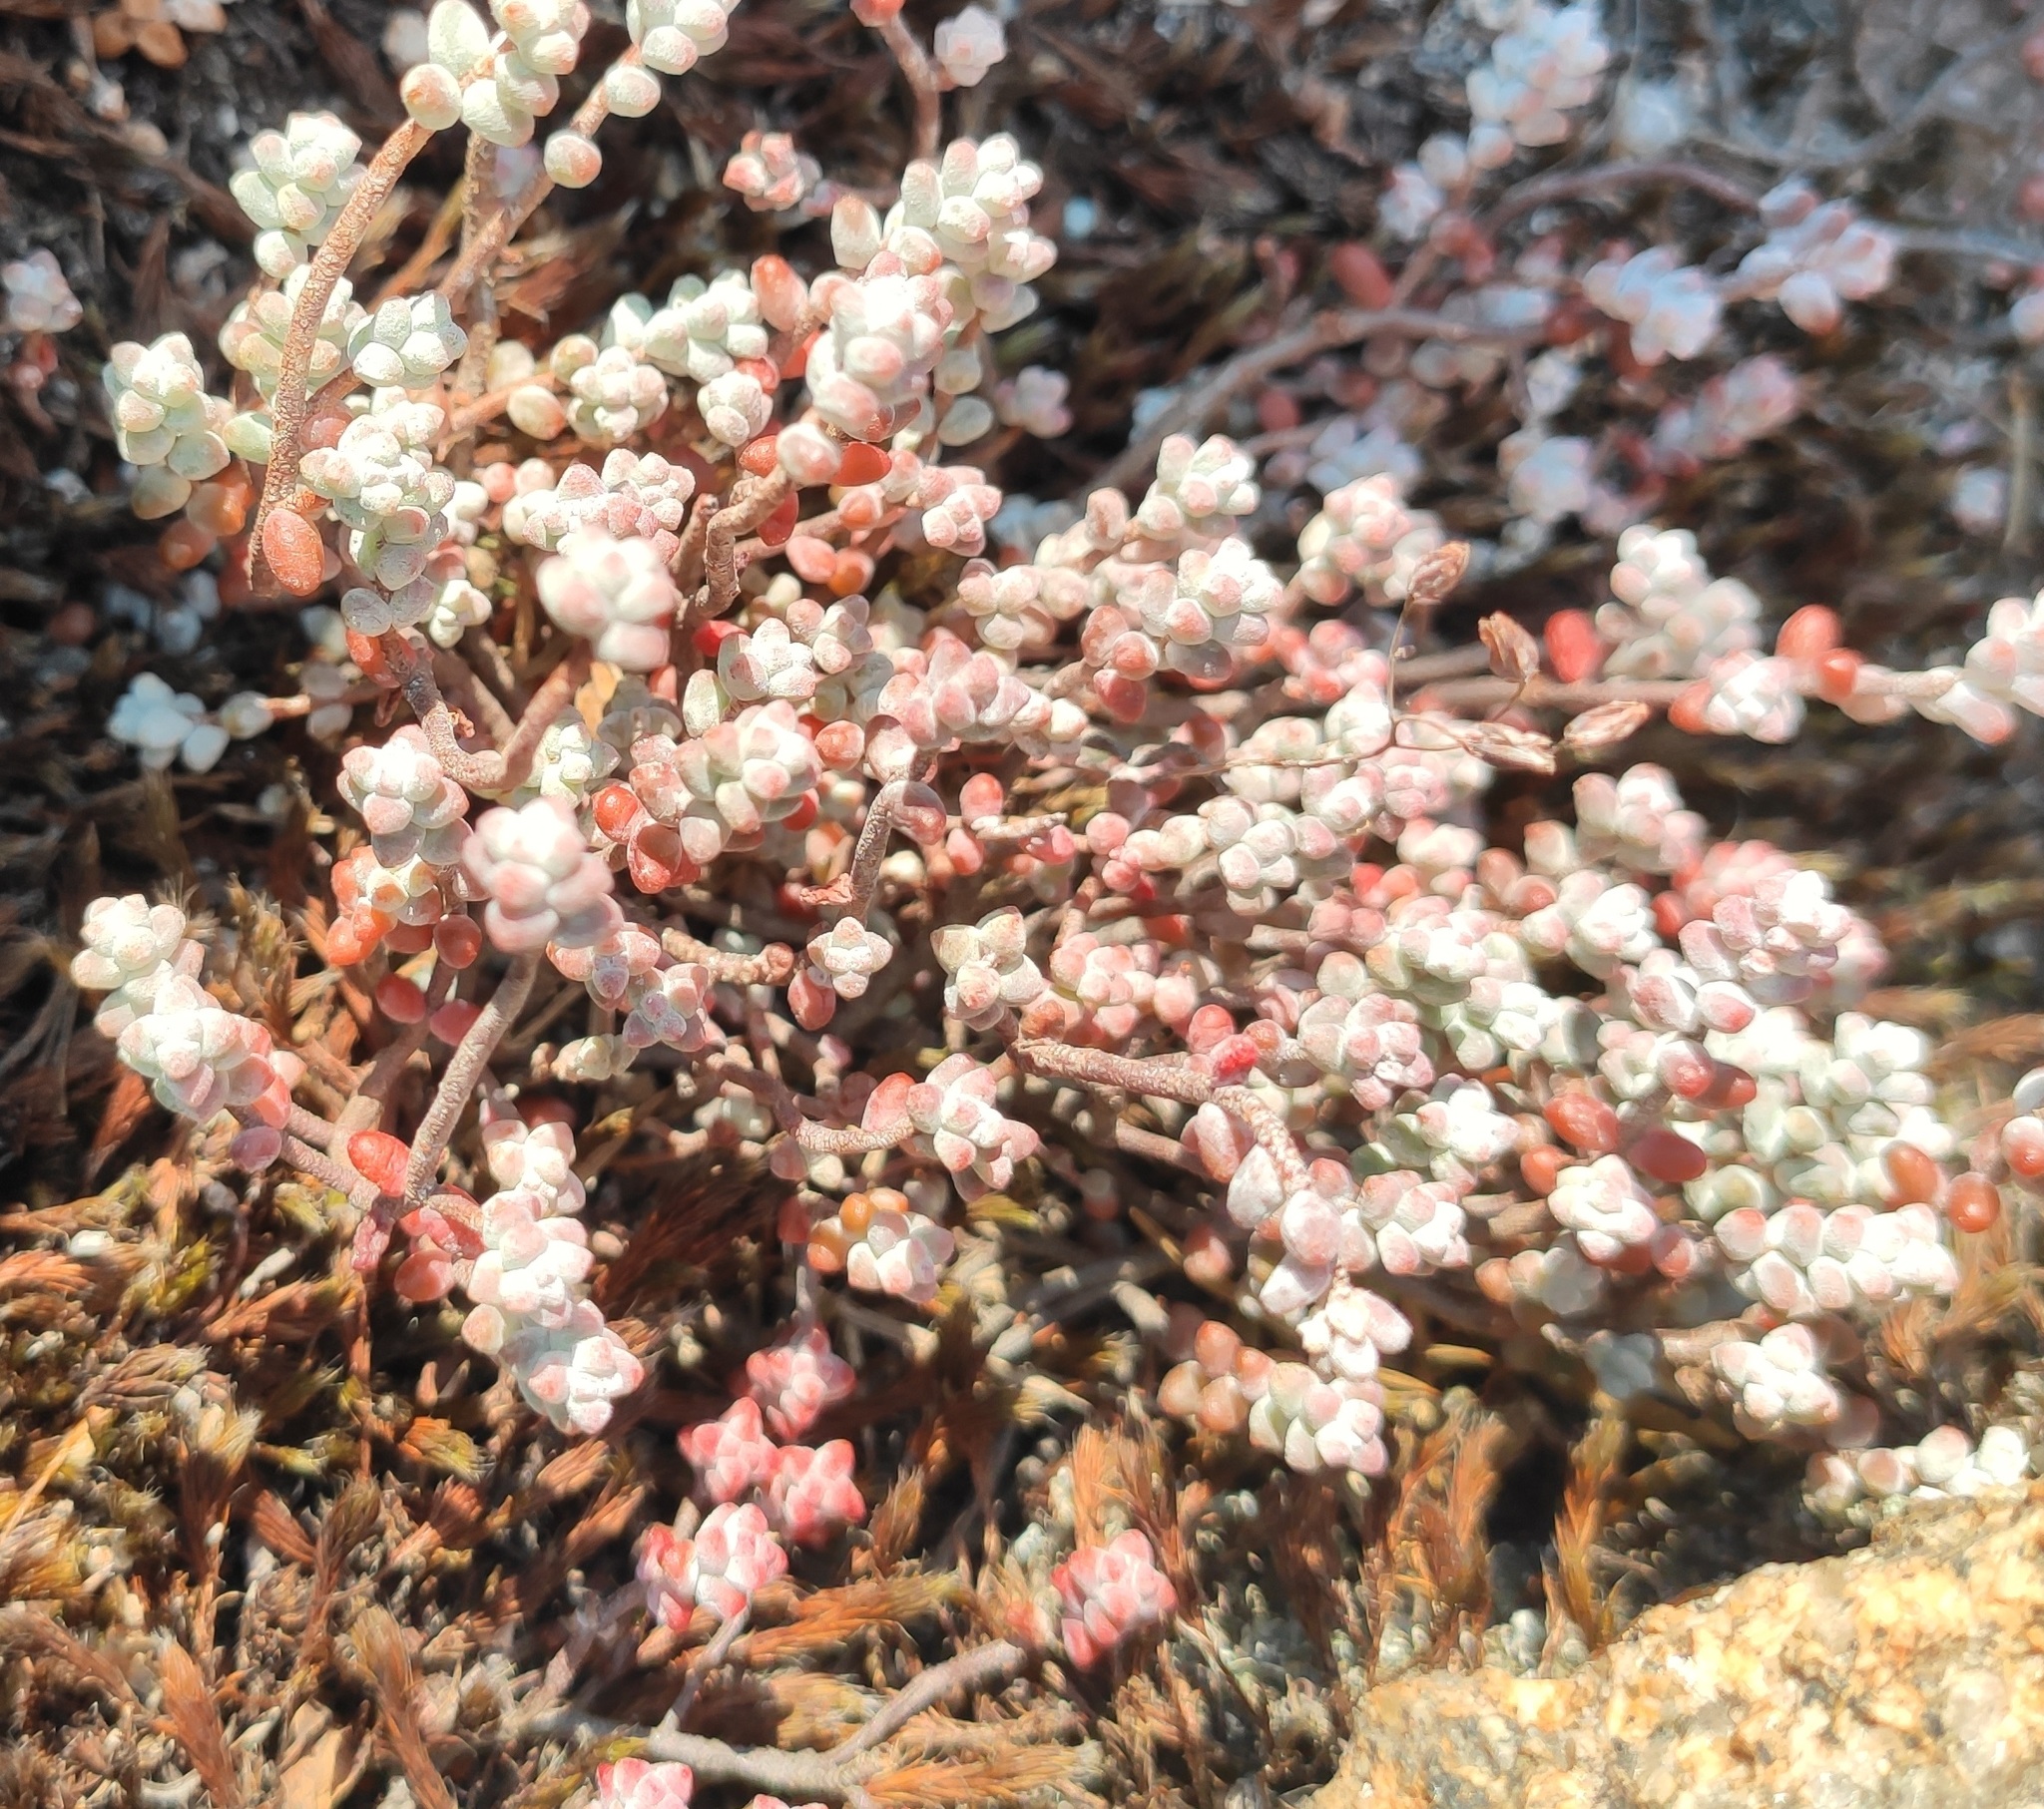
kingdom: Plantae
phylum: Tracheophyta
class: Magnoliopsida
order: Saxifragales
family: Crassulaceae
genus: Sedum
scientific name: Sedum brevifolium
